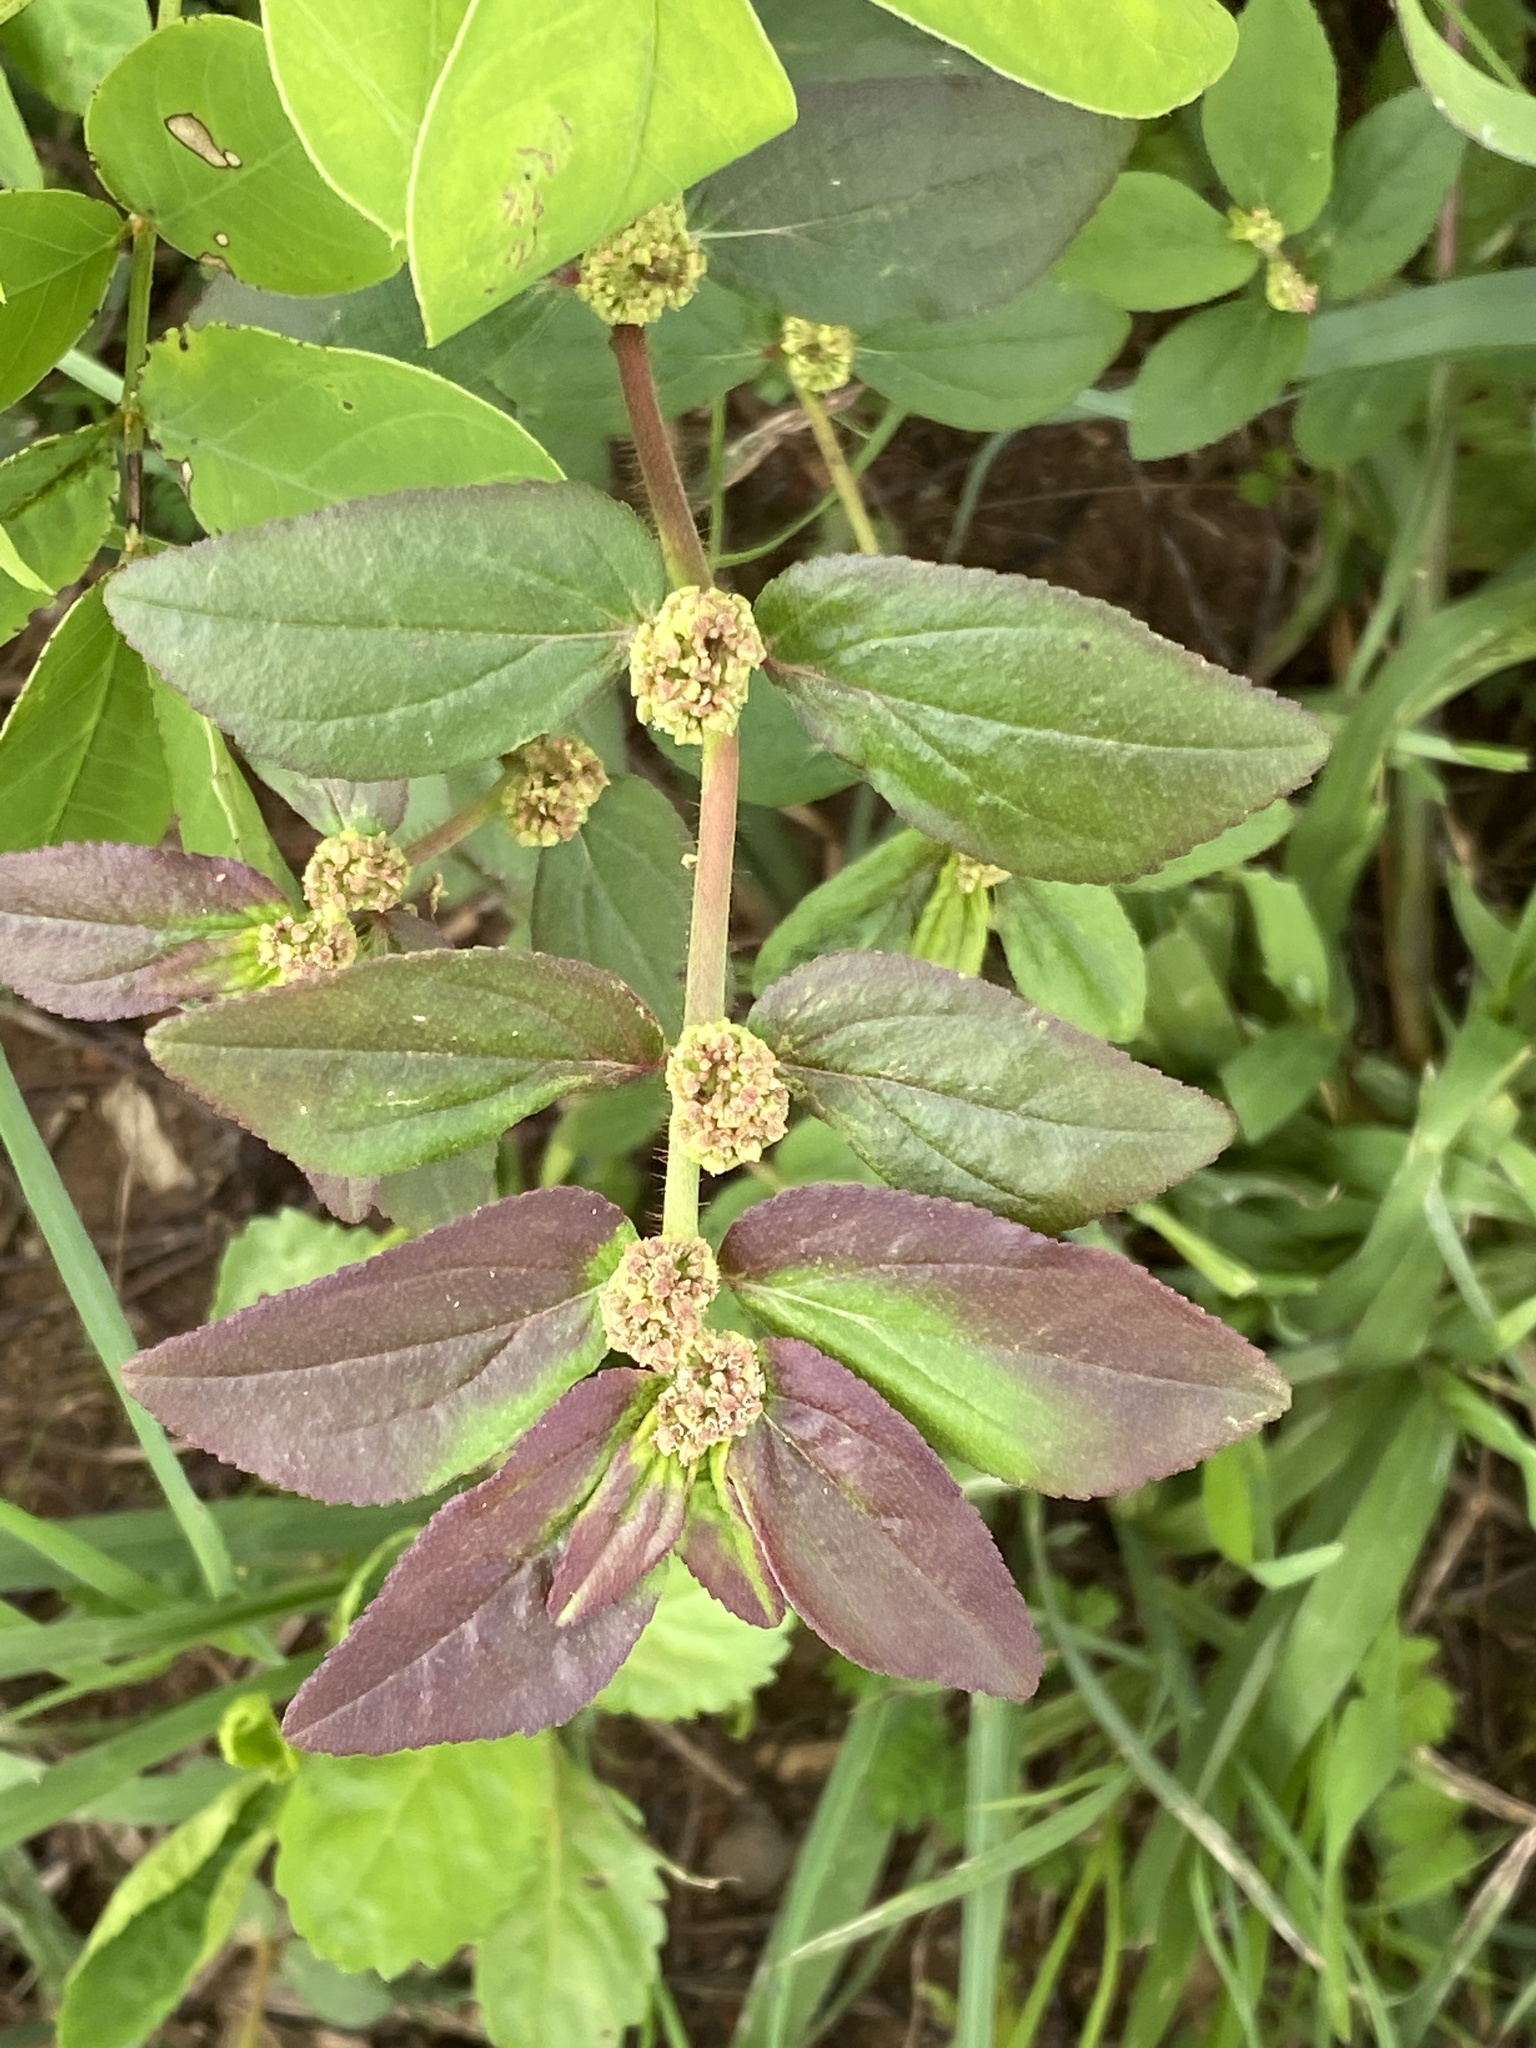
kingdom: Plantae
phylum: Tracheophyta
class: Magnoliopsida
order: Malpighiales
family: Euphorbiaceae
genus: Euphorbia
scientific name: Euphorbia hirta
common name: Pillpod sandmat
